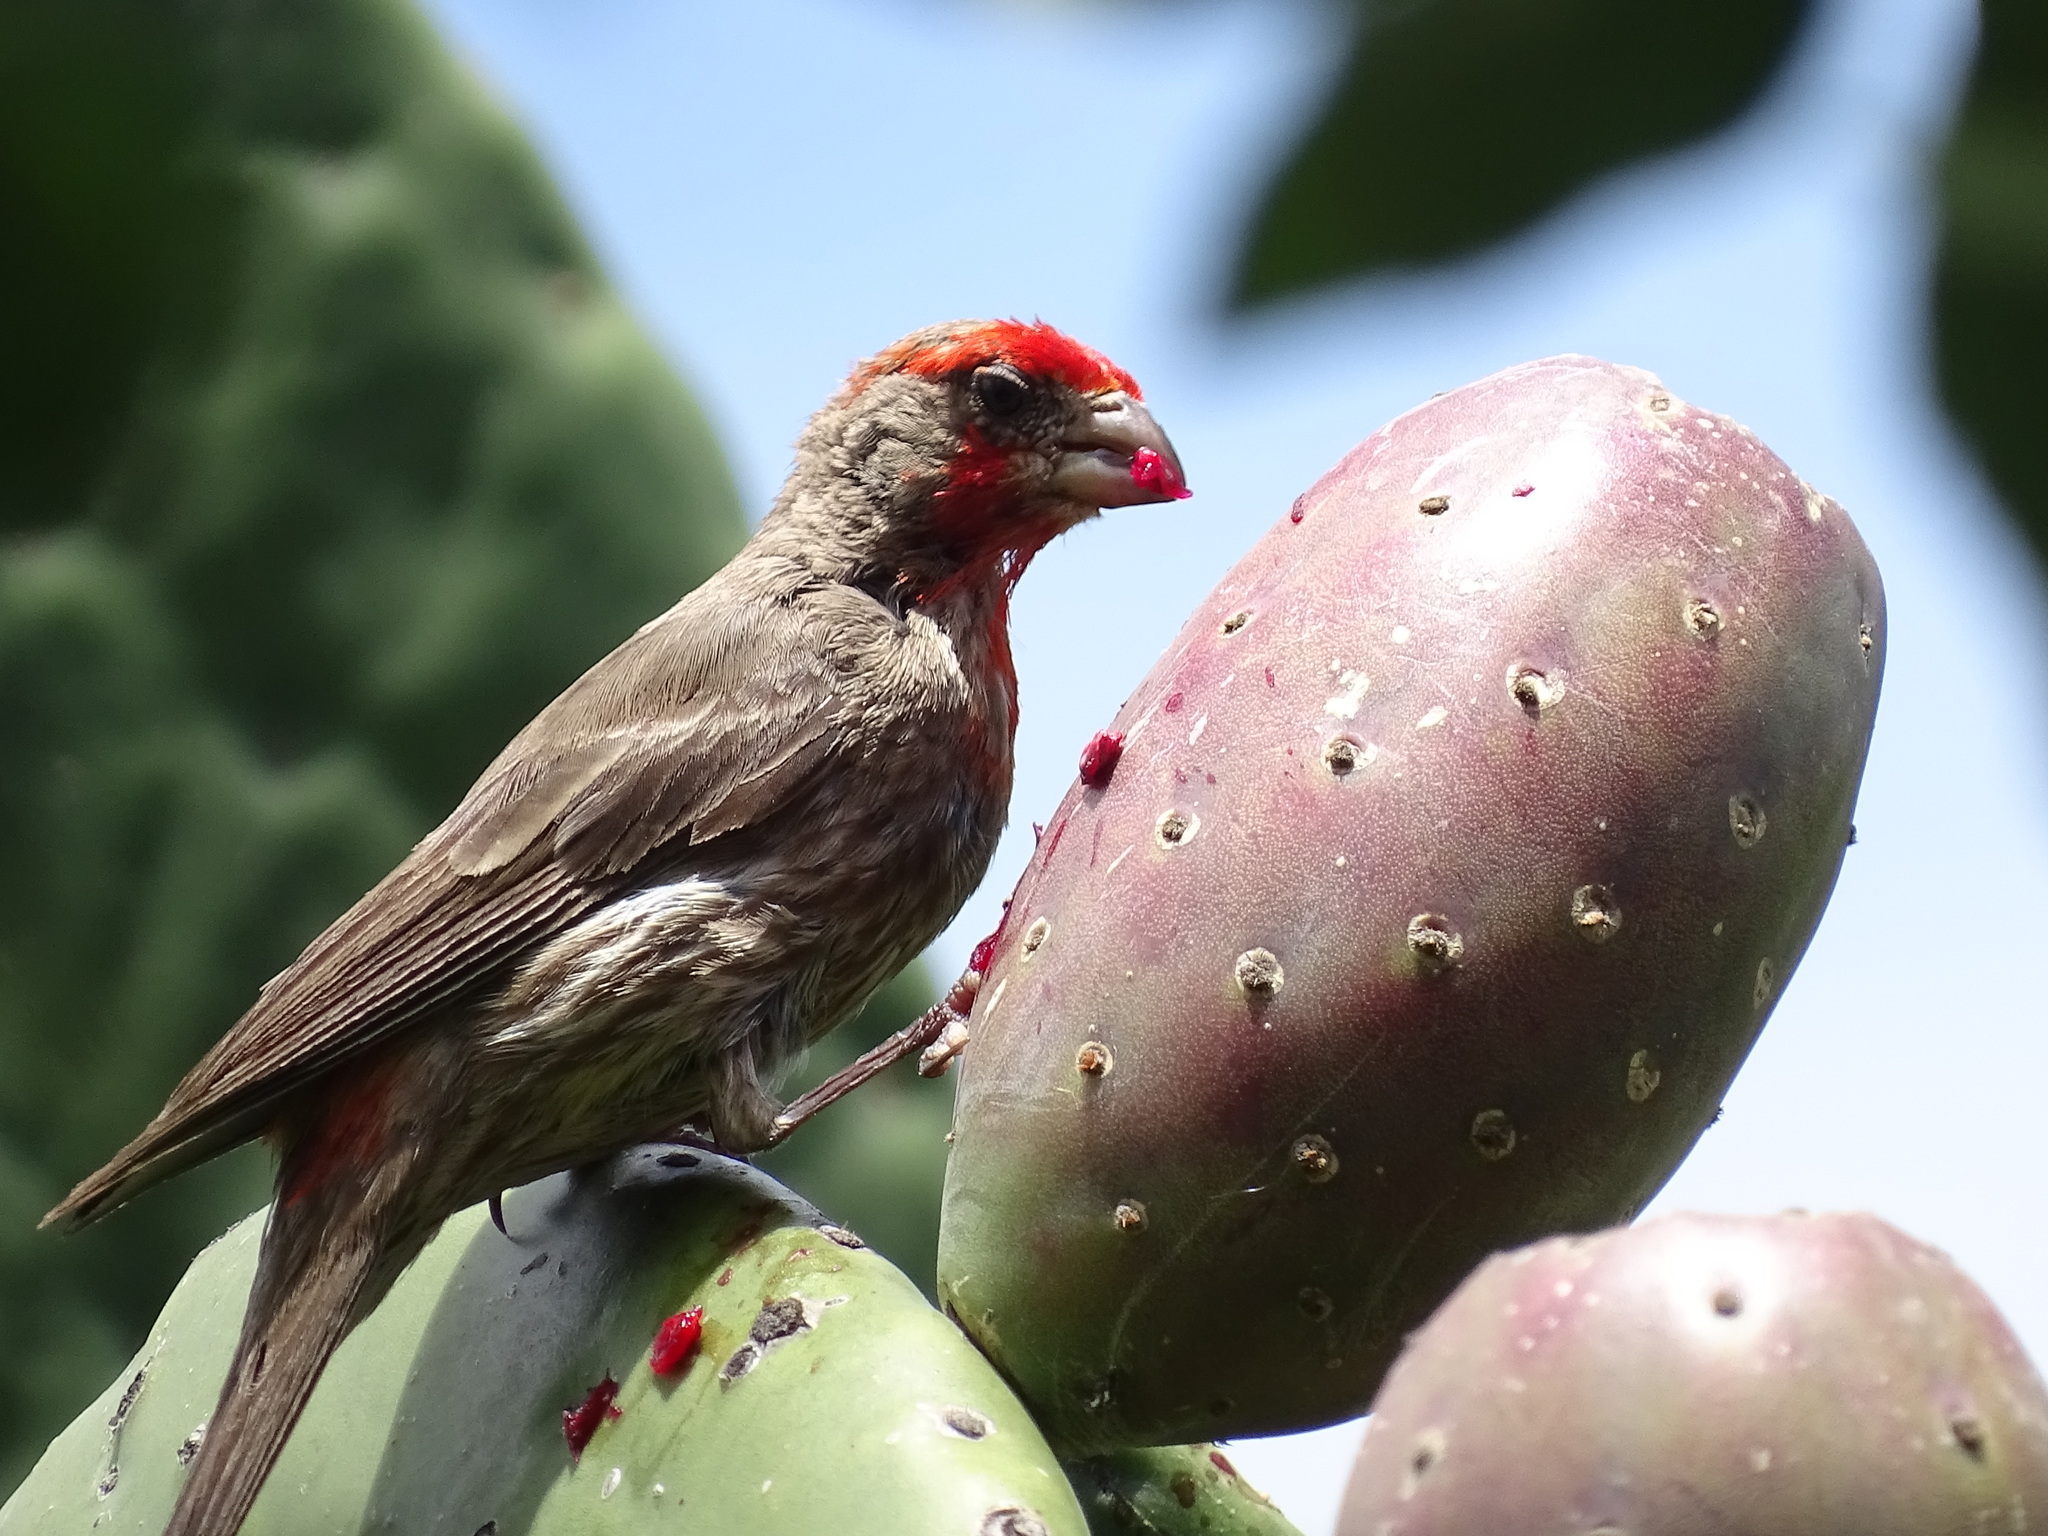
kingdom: Animalia
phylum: Chordata
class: Aves
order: Passeriformes
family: Fringillidae
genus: Haemorhous
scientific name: Haemorhous mexicanus
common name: House finch
